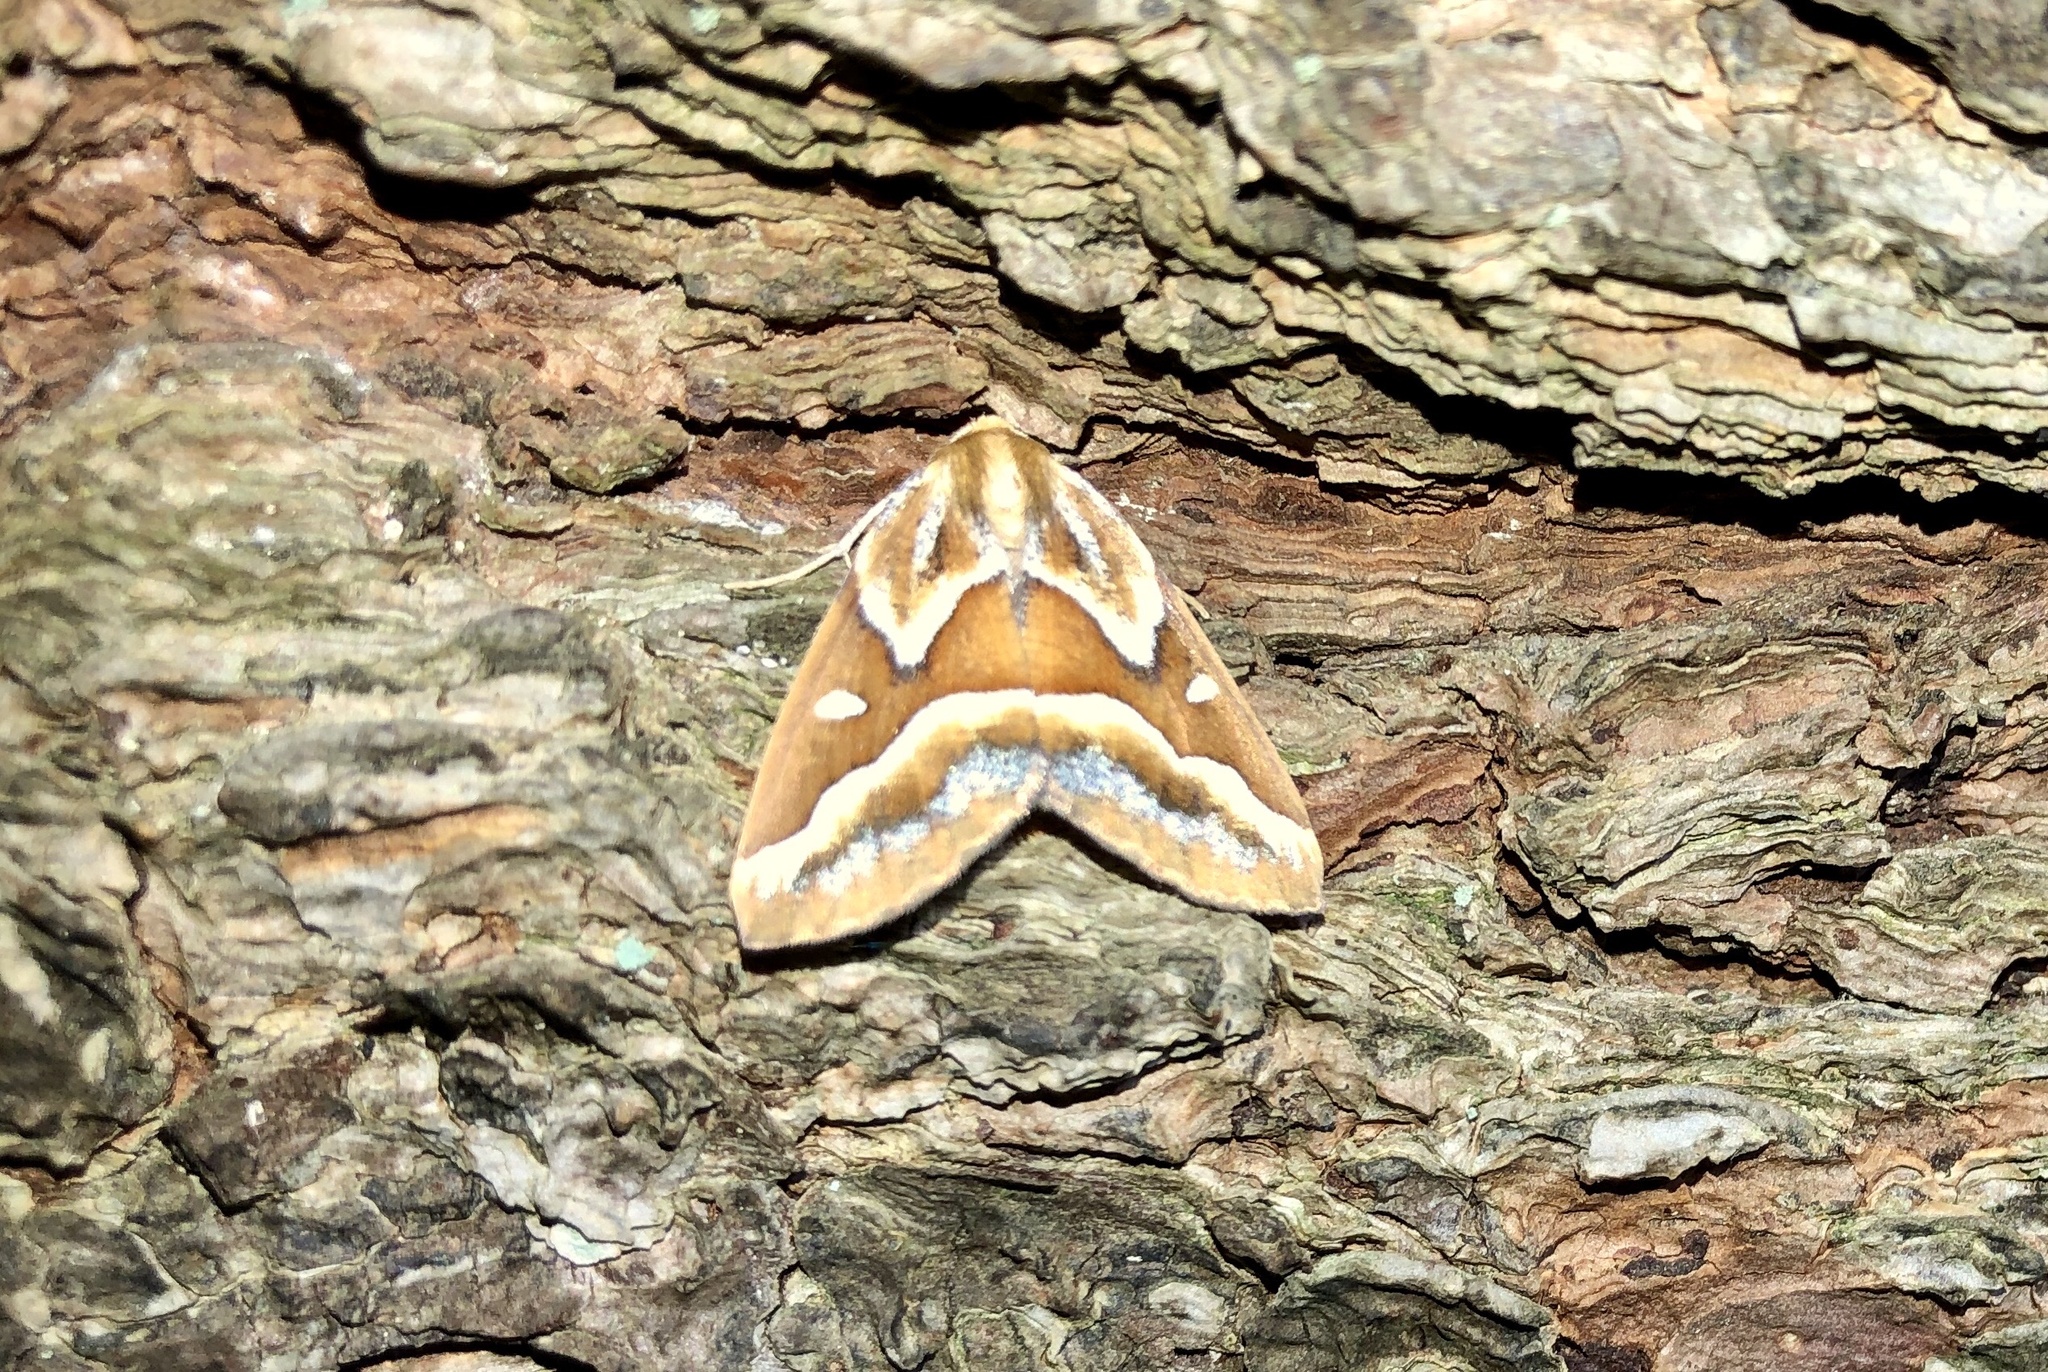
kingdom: Animalia
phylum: Arthropoda
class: Insecta
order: Lepidoptera
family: Geometridae
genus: Caripeta
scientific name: Caripeta angustiorata
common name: Brown pine looper
